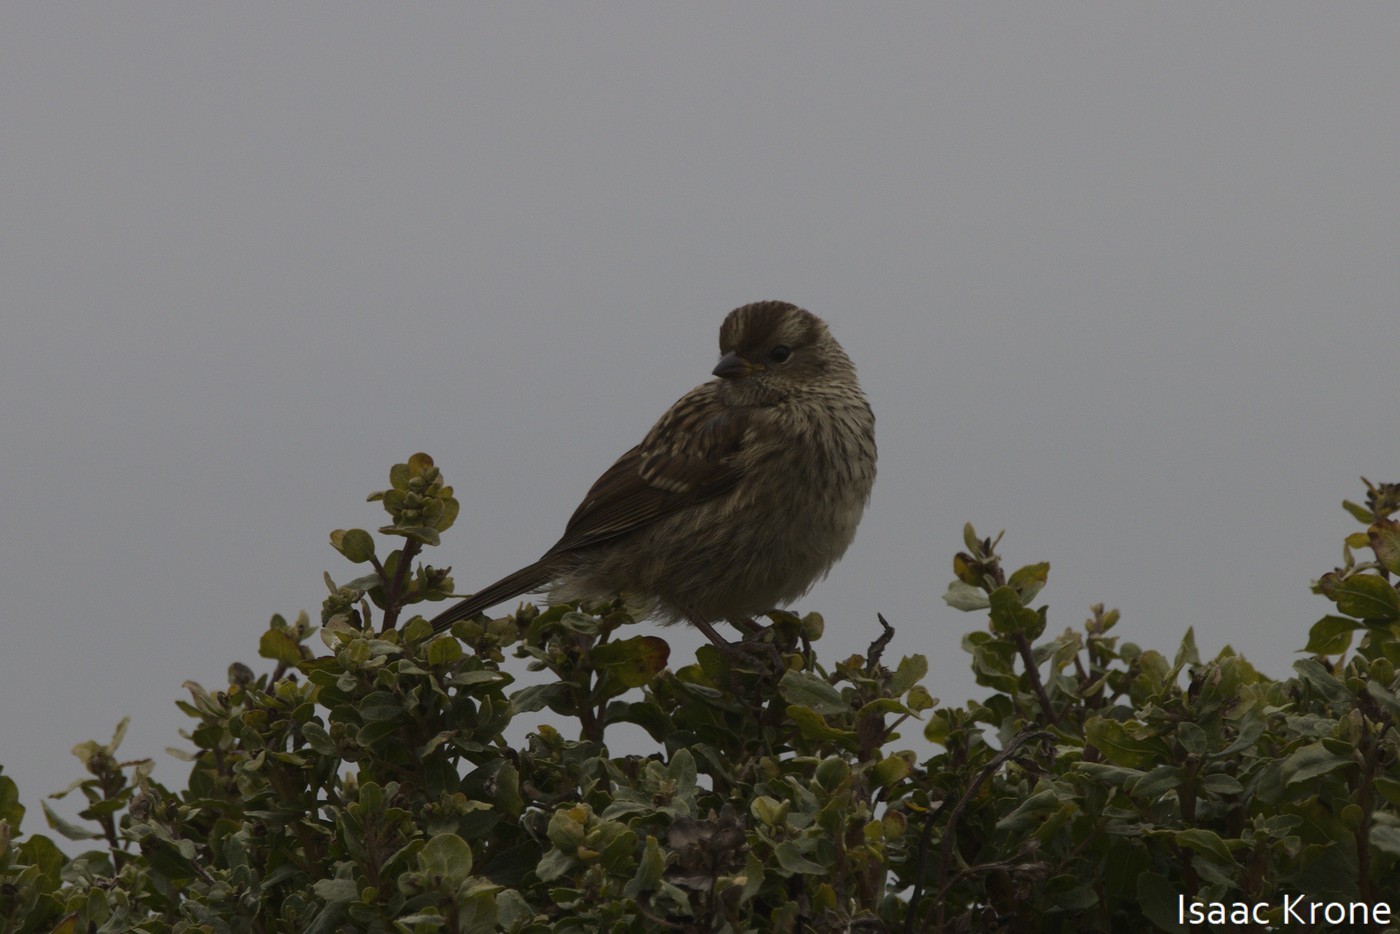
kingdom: Animalia
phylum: Chordata
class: Aves
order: Passeriformes
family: Passerellidae
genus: Zonotrichia
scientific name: Zonotrichia leucophrys
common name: White-crowned sparrow
